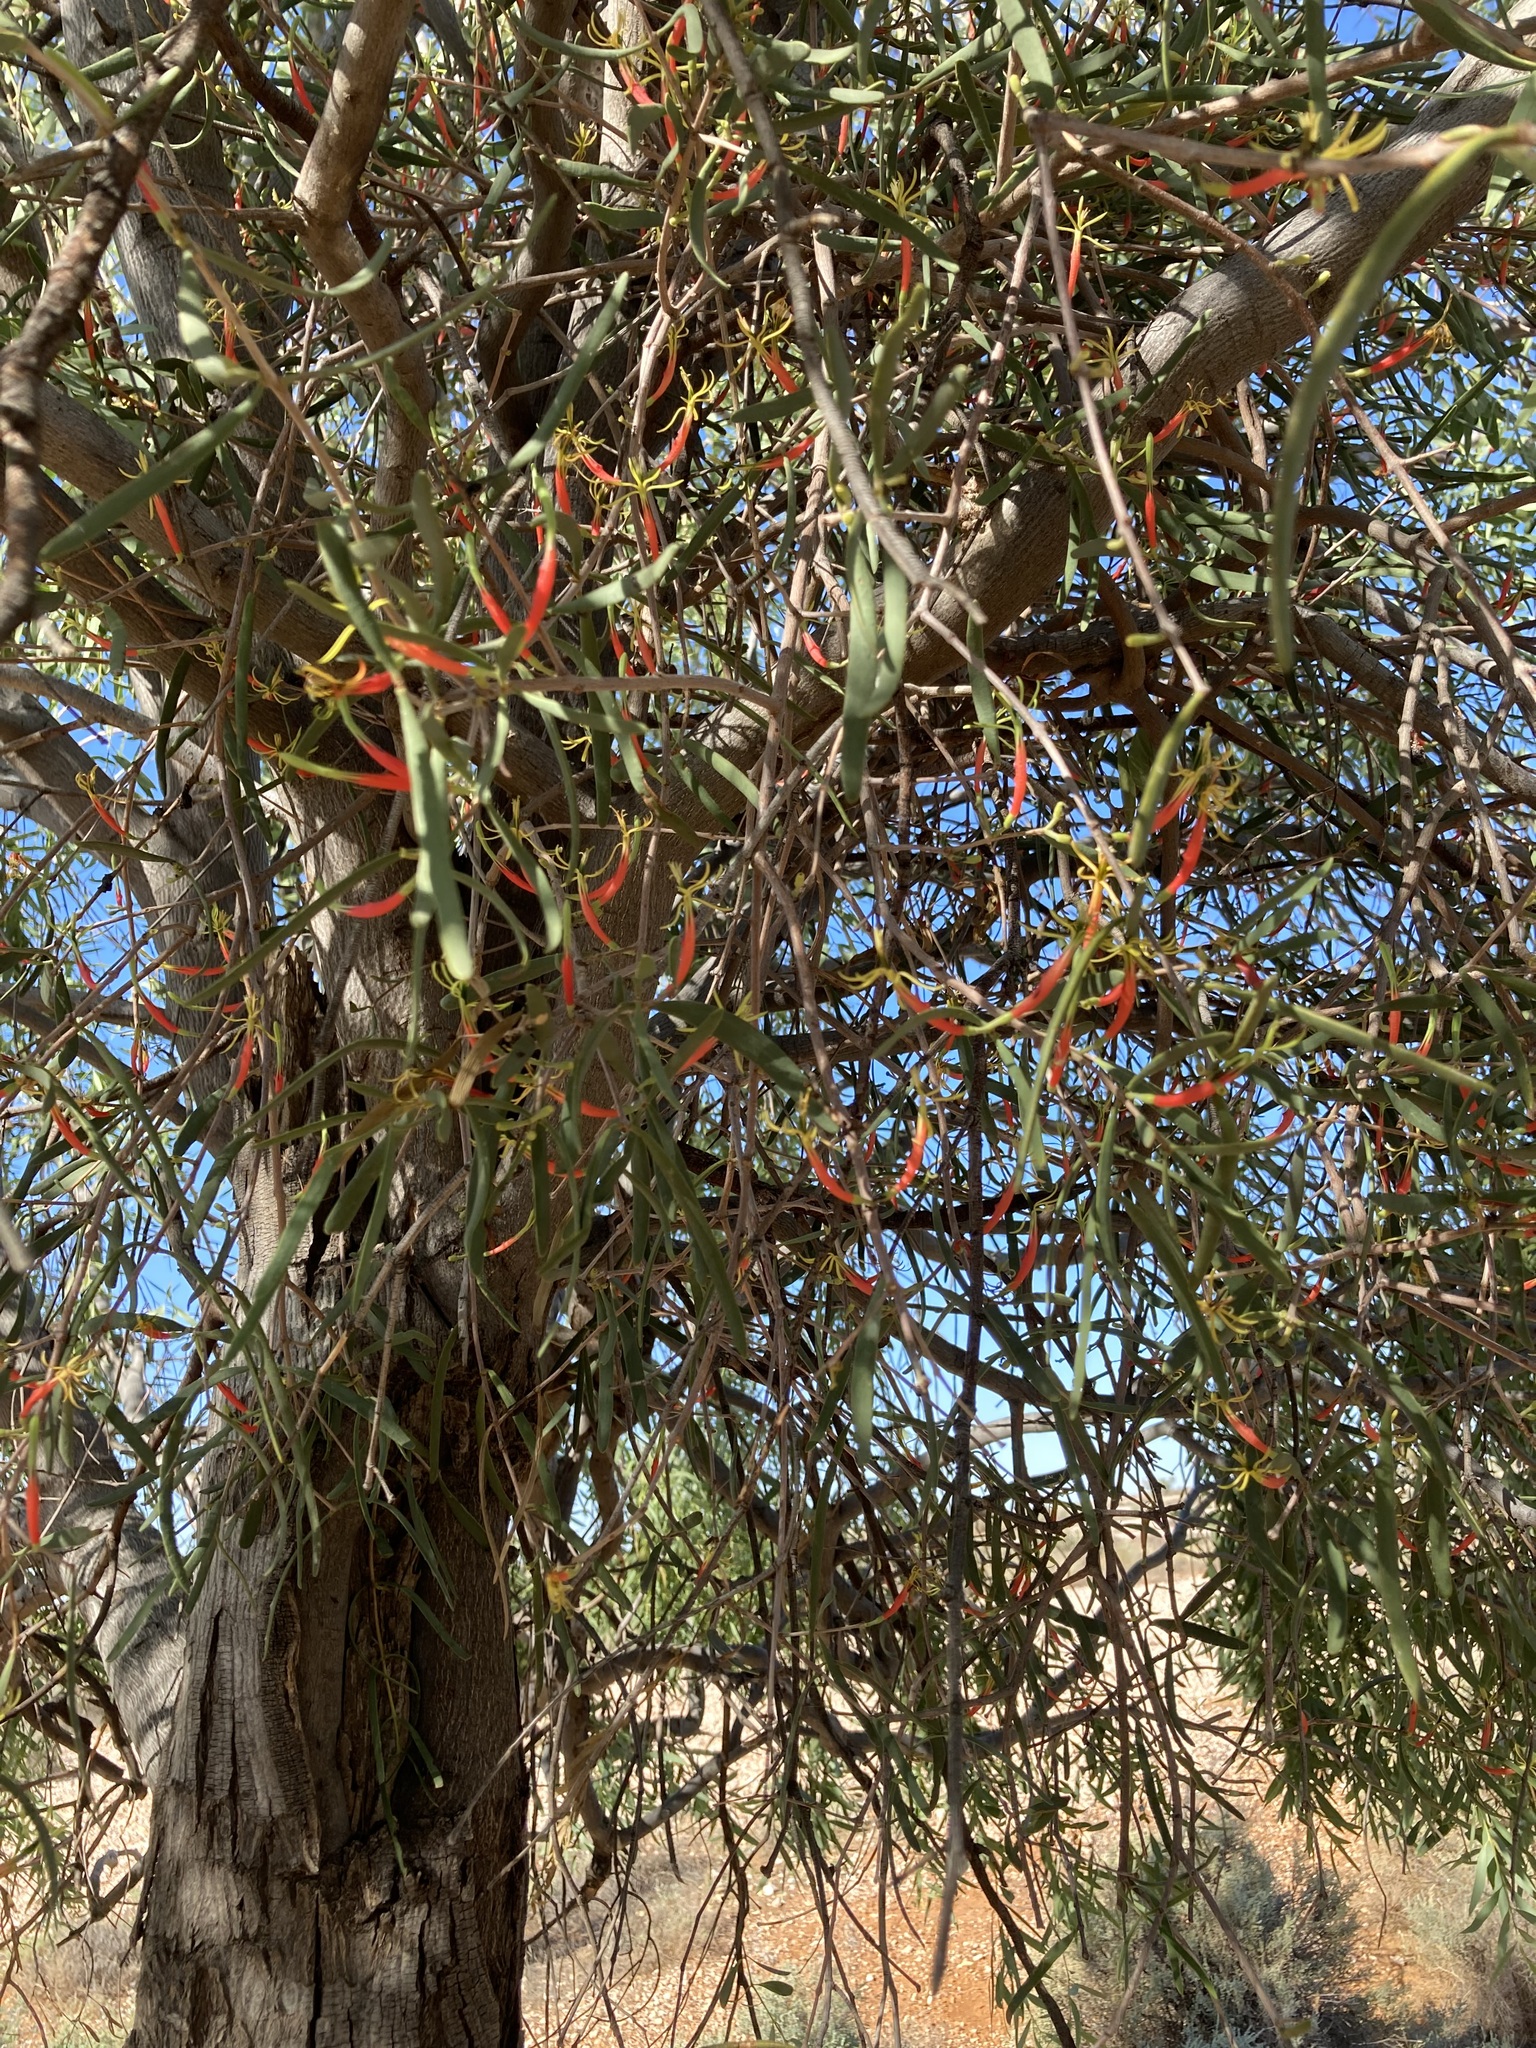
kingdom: Plantae
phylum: Tracheophyta
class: Magnoliopsida
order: Santalales
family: Loranthaceae
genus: Lysiana
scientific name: Lysiana exocarpi
